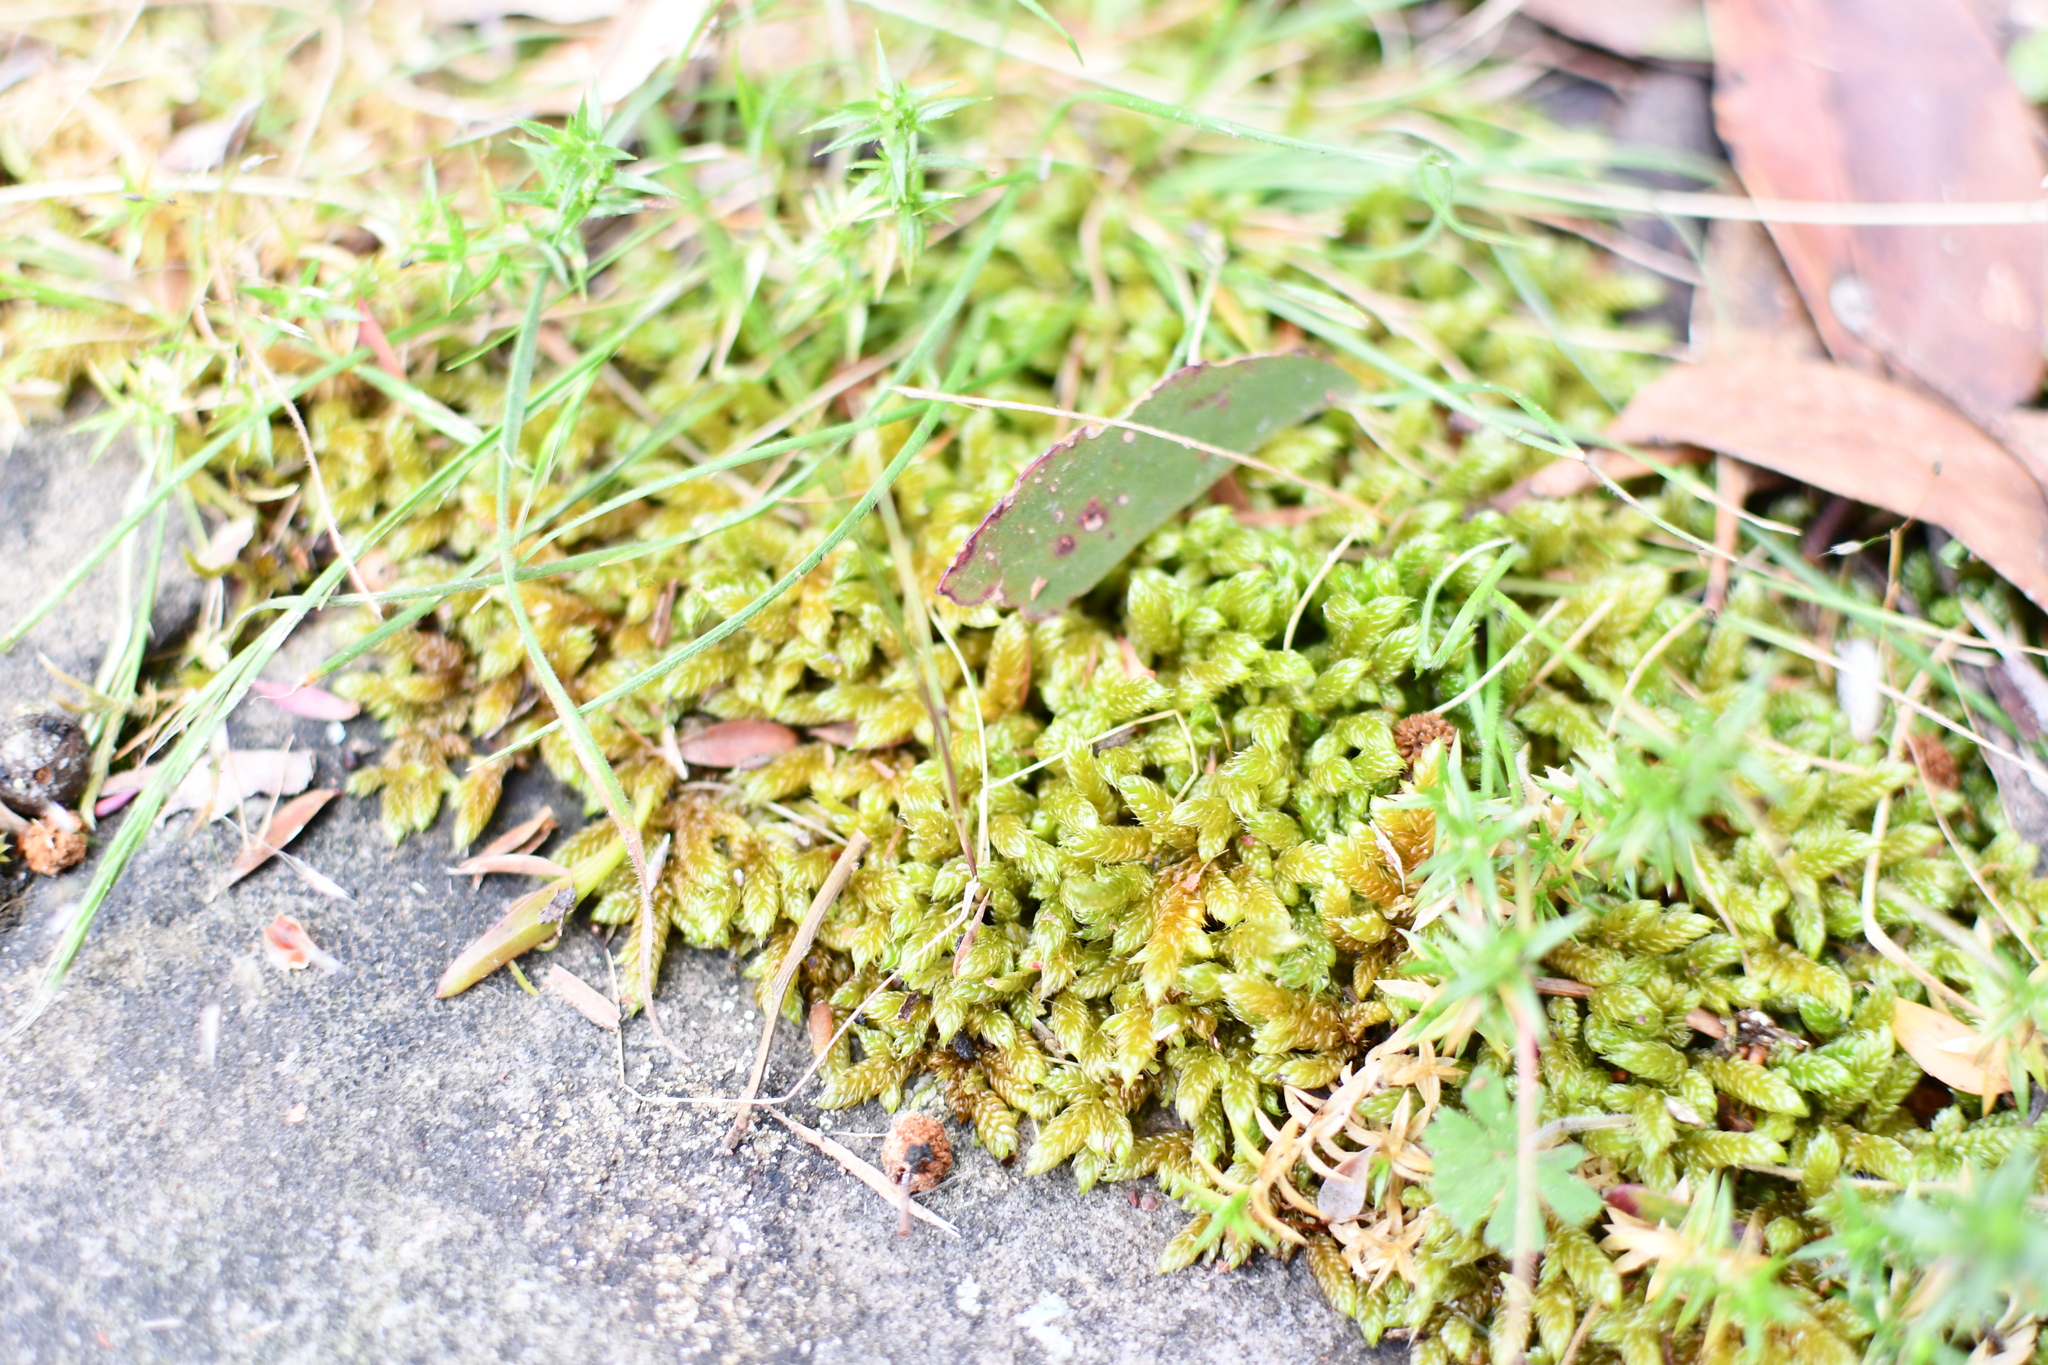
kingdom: Plantae
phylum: Bryophyta
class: Bryopsida
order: Hypnales
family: Hypnaceae
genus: Hypnum
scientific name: Hypnum cupressiforme
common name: Cypress-leaved plait-moss
